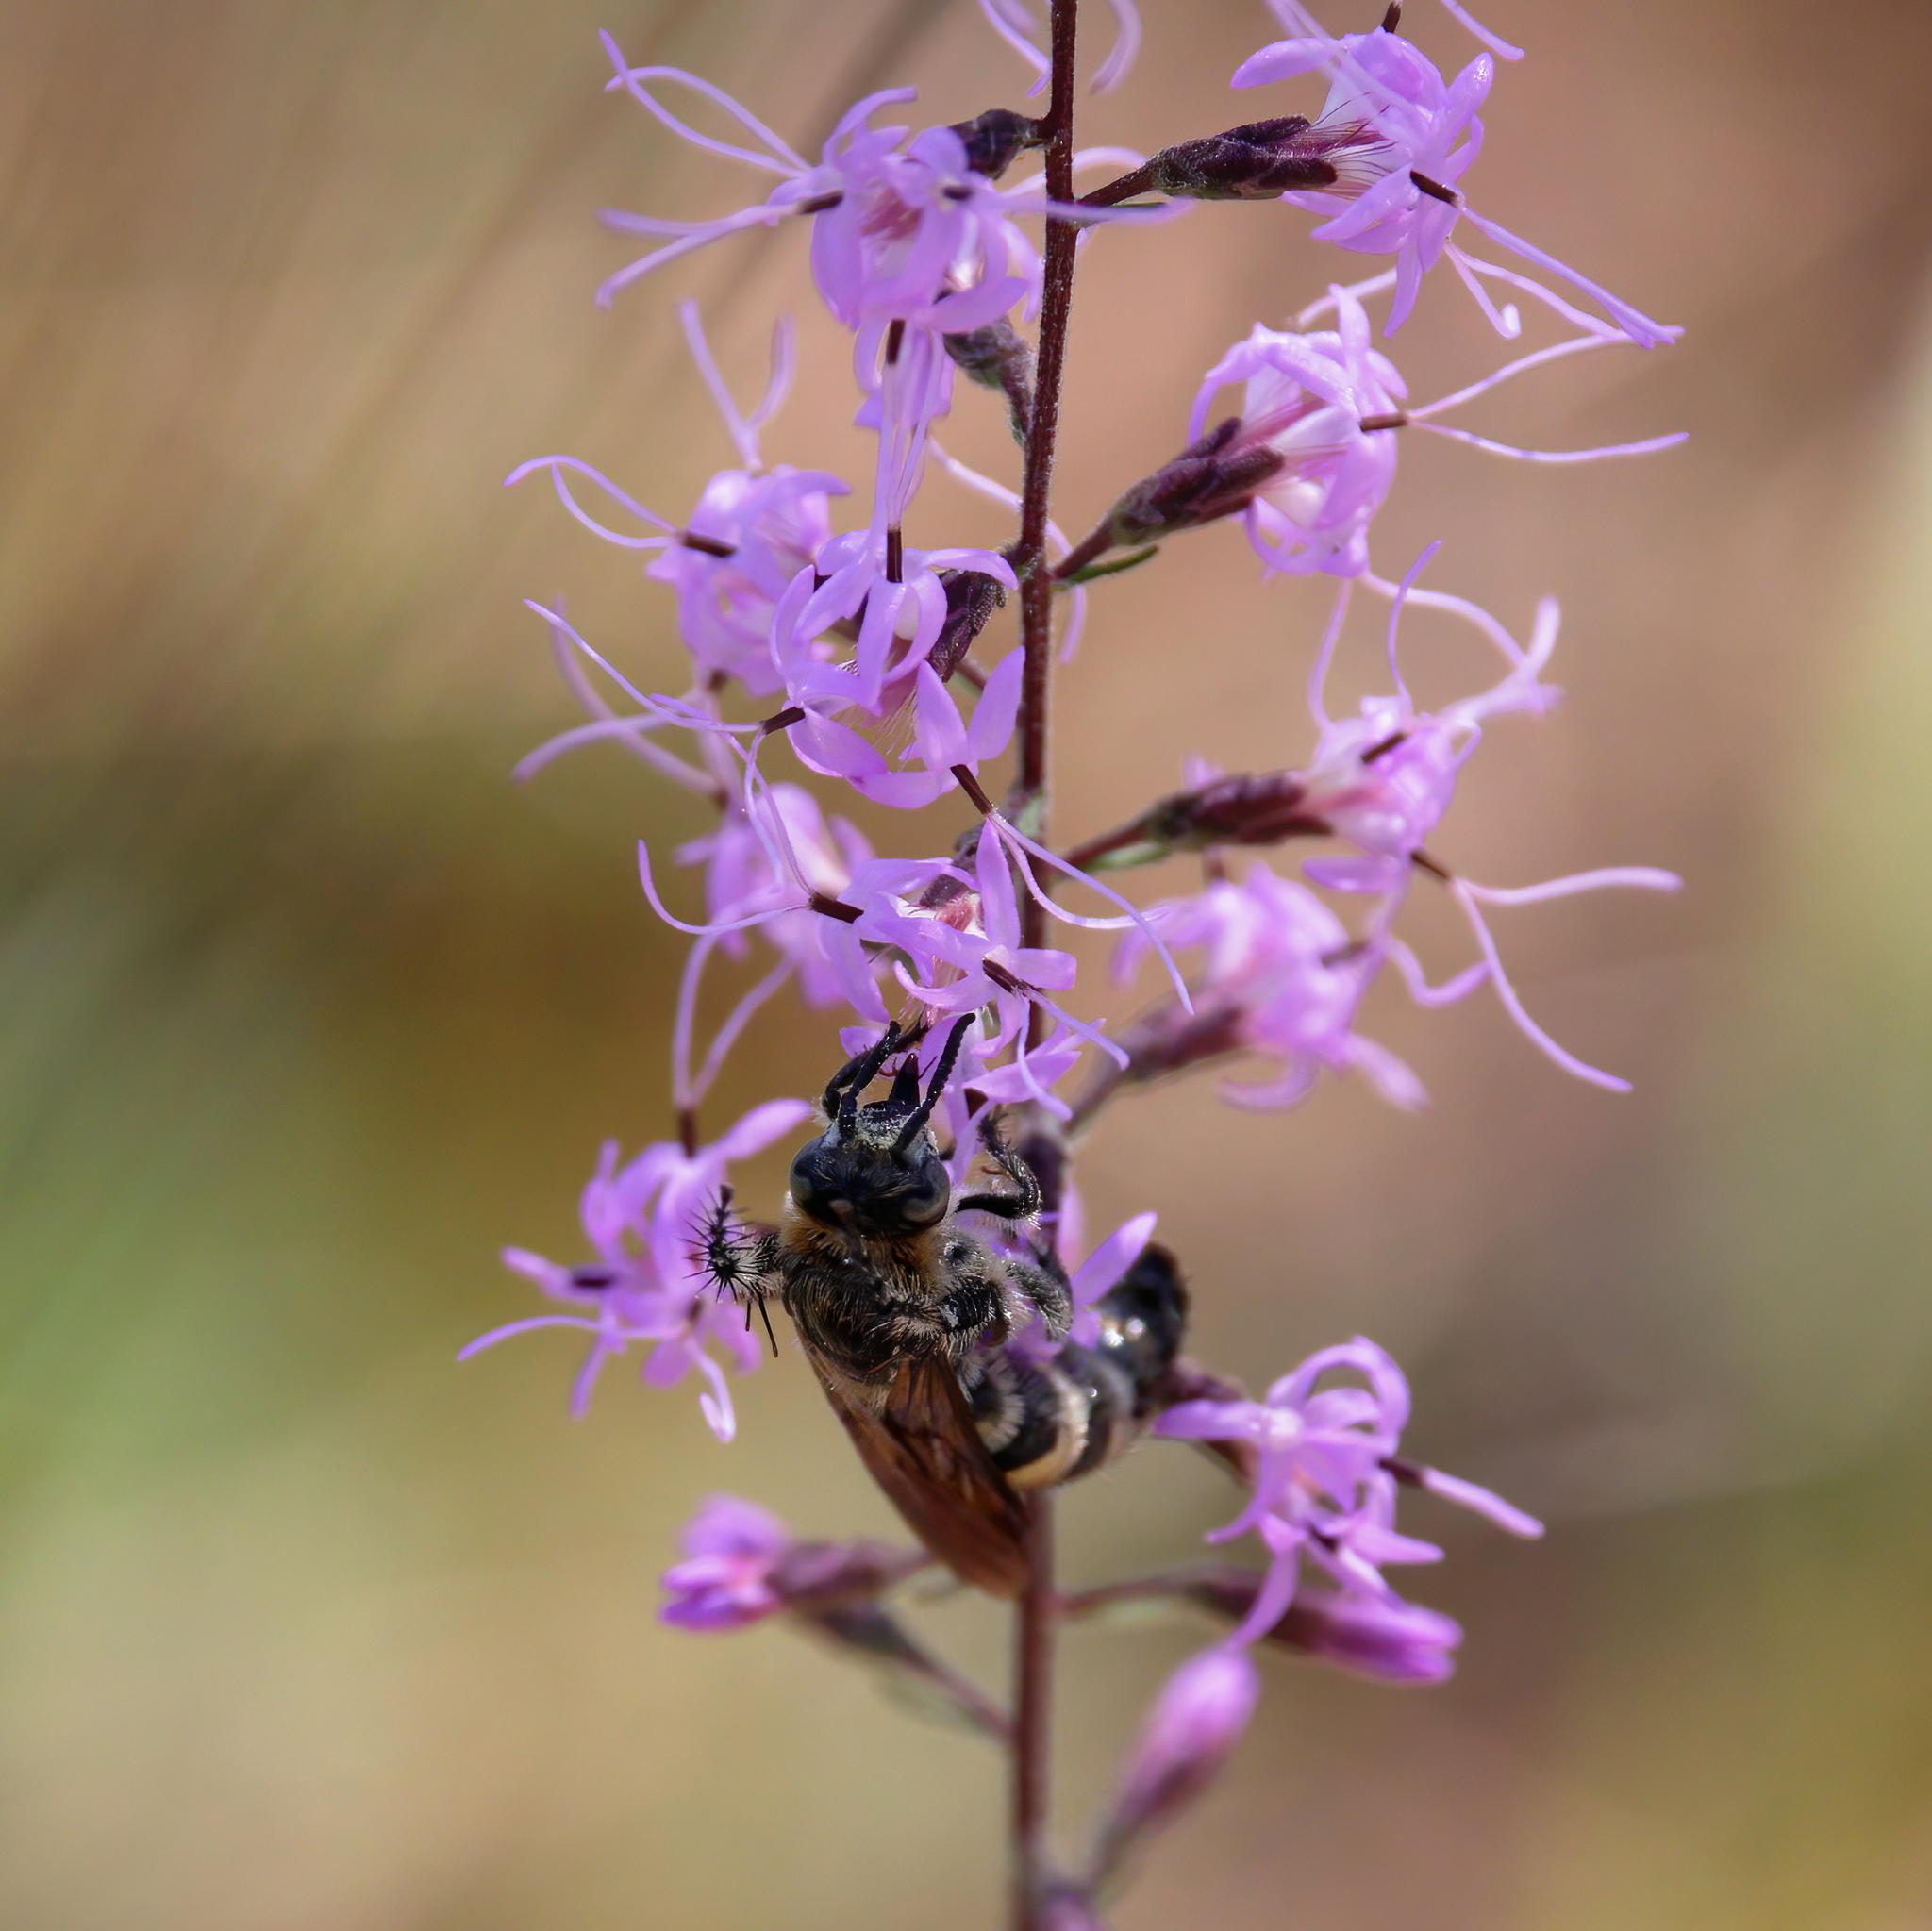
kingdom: Animalia
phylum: Arthropoda
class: Insecta
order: Hymenoptera
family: Scoliidae
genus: Dielis
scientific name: Dielis
